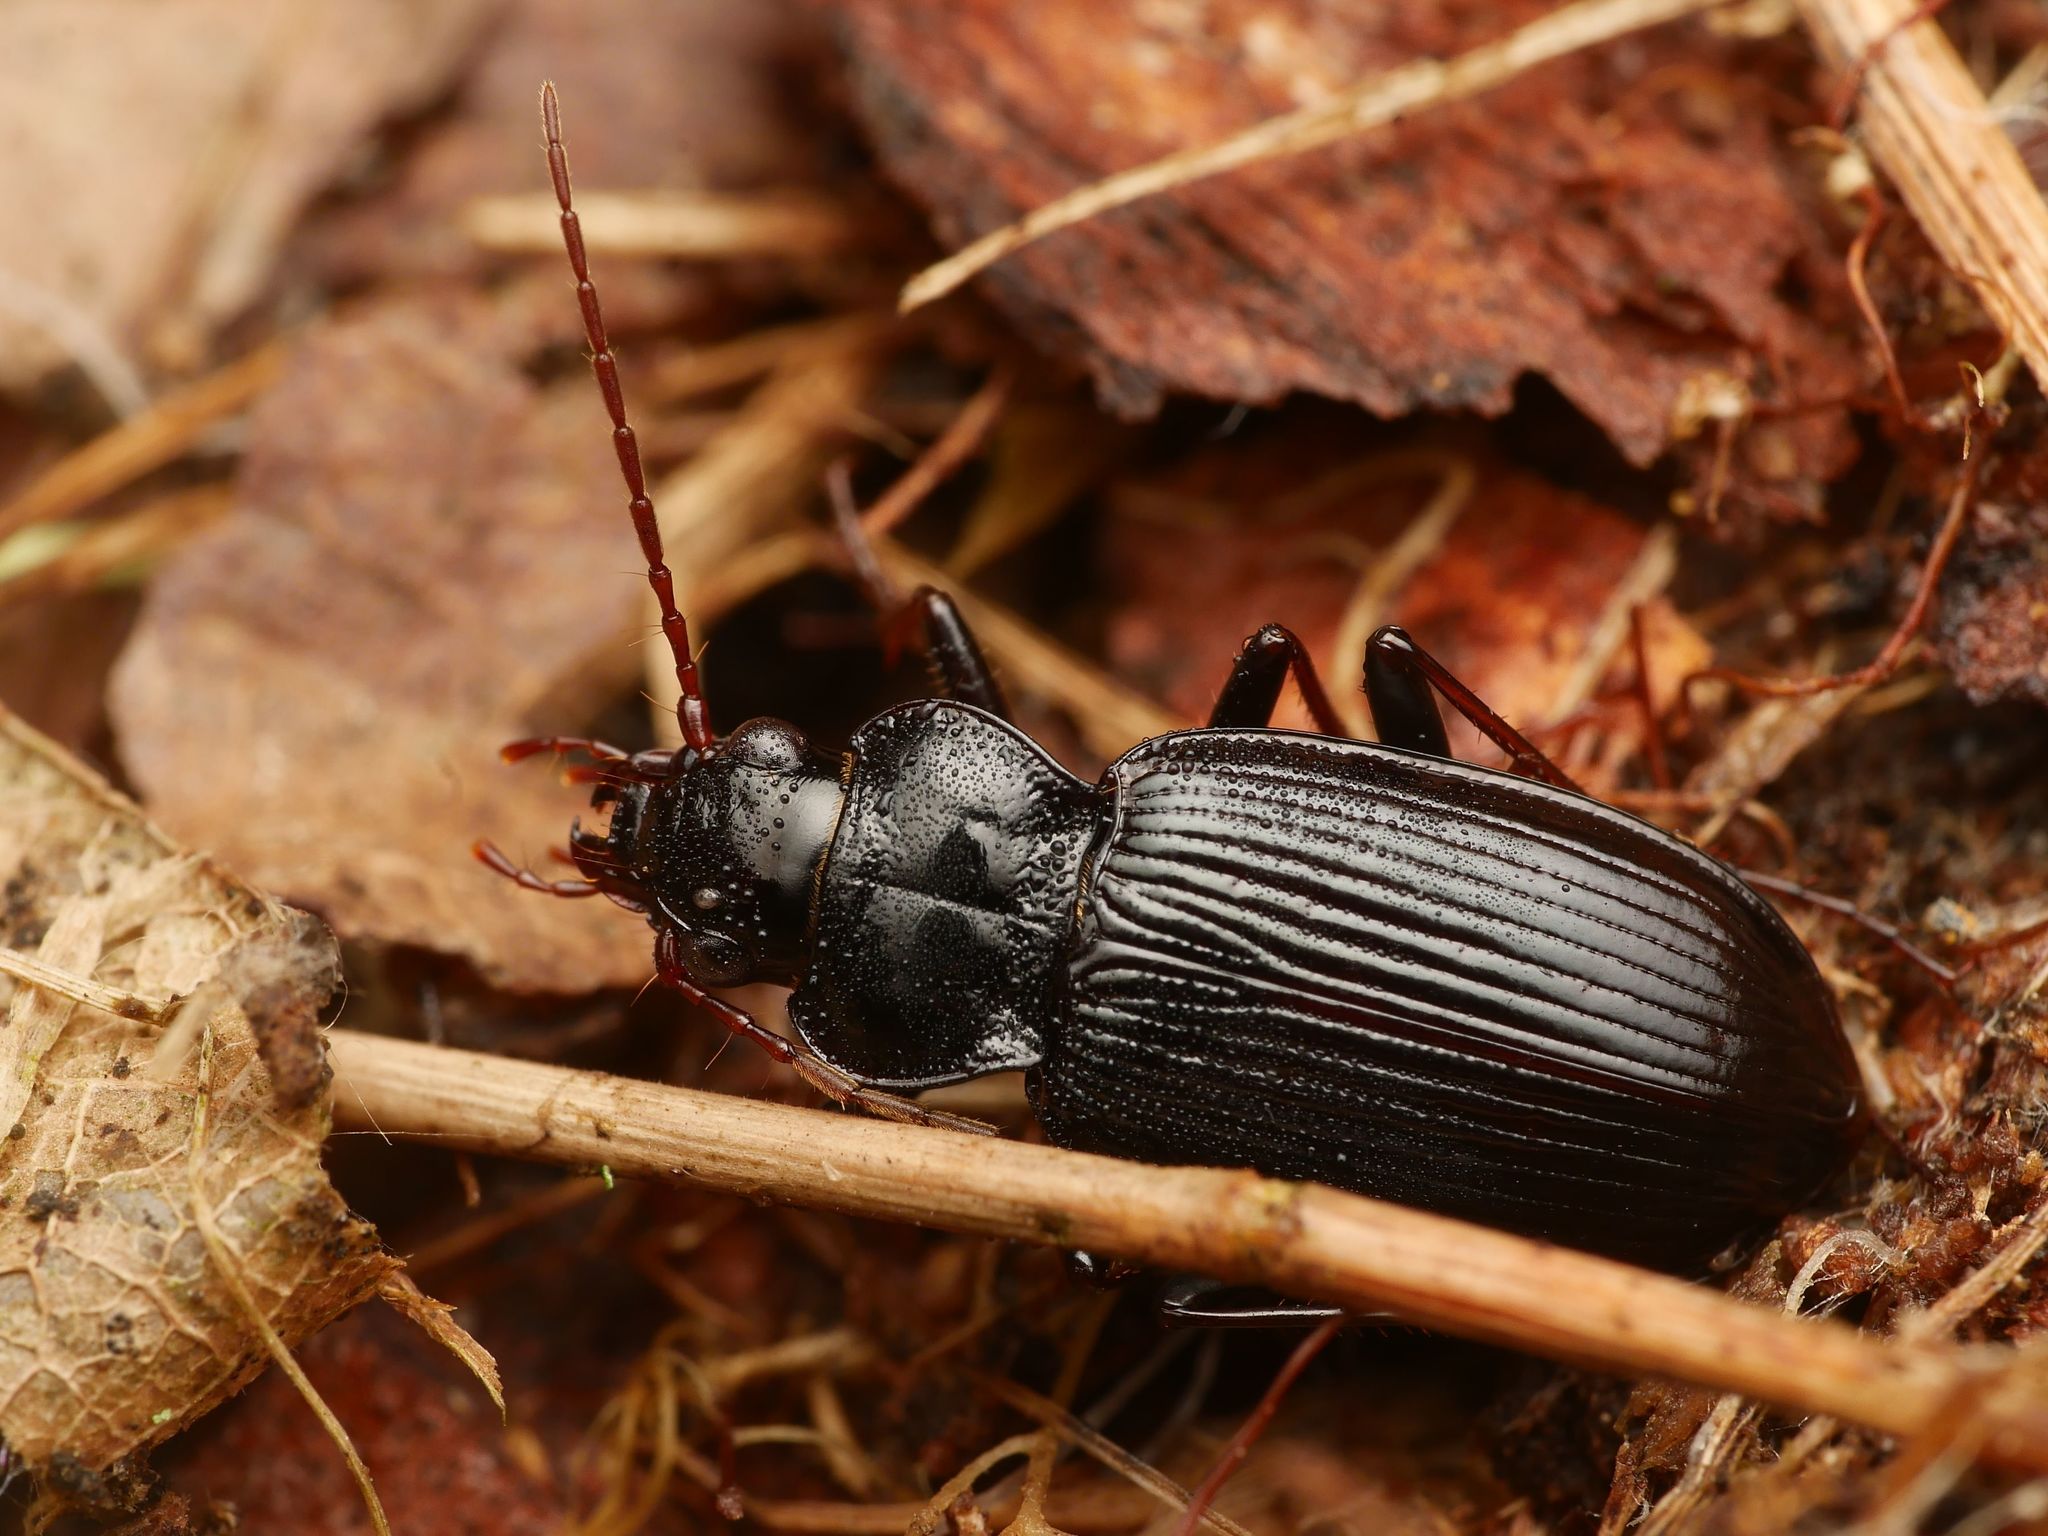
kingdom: Animalia
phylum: Arthropoda
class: Insecta
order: Coleoptera
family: Carabidae
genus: Nebria
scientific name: Nebria brevicollis
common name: Short-necked gazelle beetle
